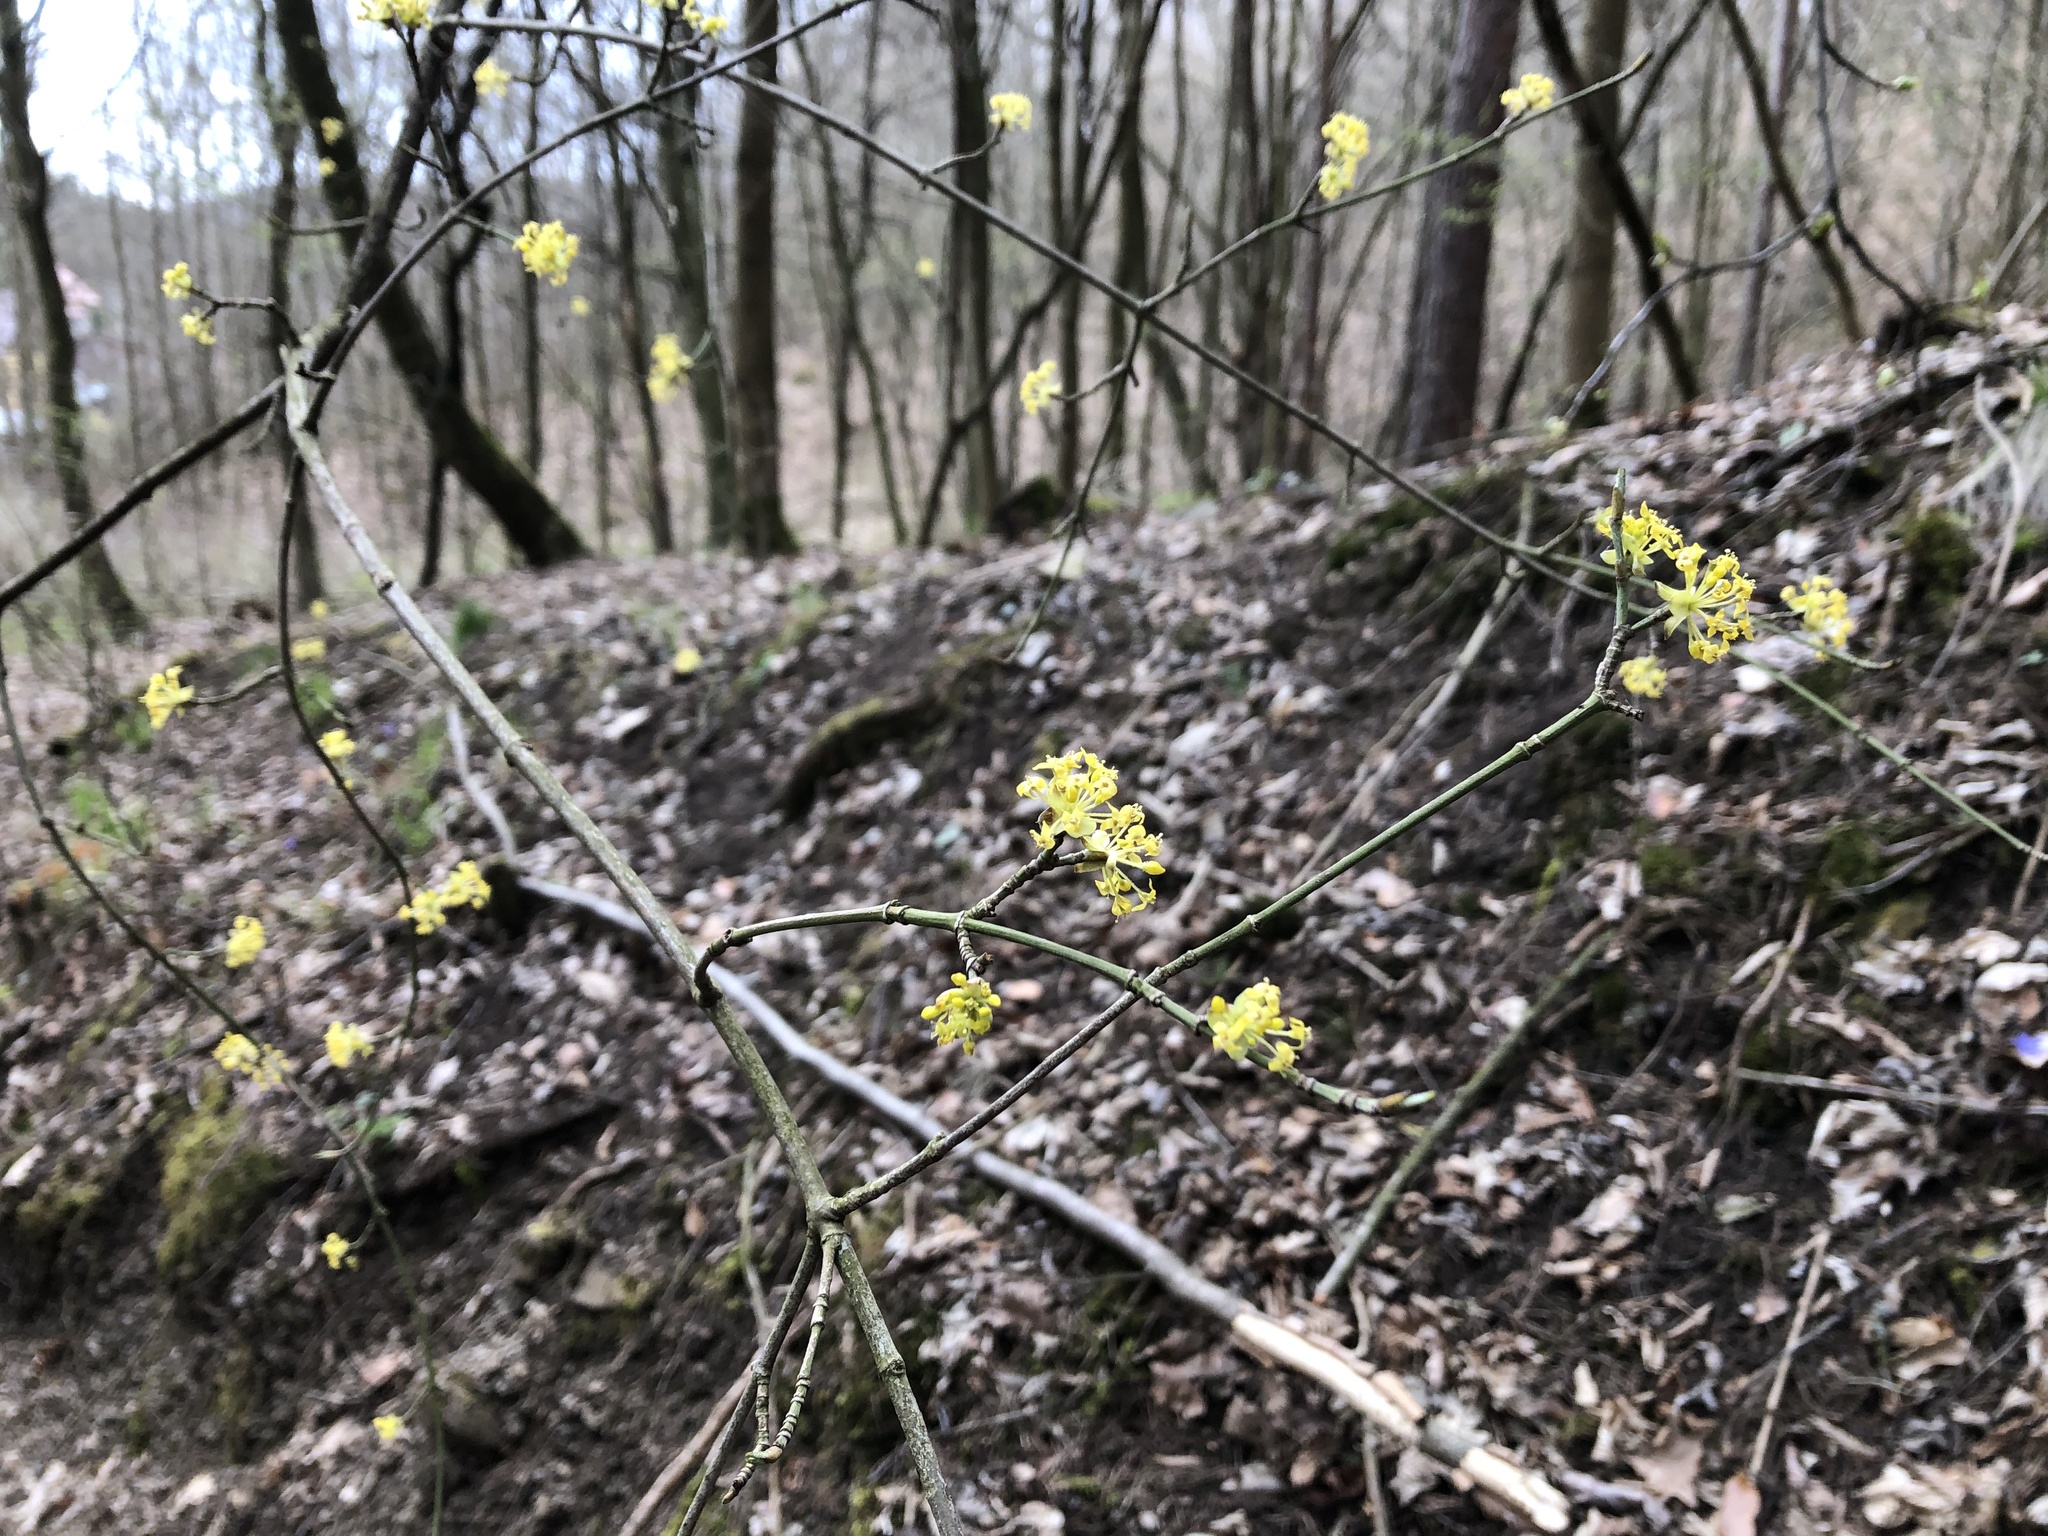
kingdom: Plantae
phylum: Tracheophyta
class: Magnoliopsida
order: Cornales
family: Cornaceae
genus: Cornus
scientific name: Cornus mas
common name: Cornelian-cherry
